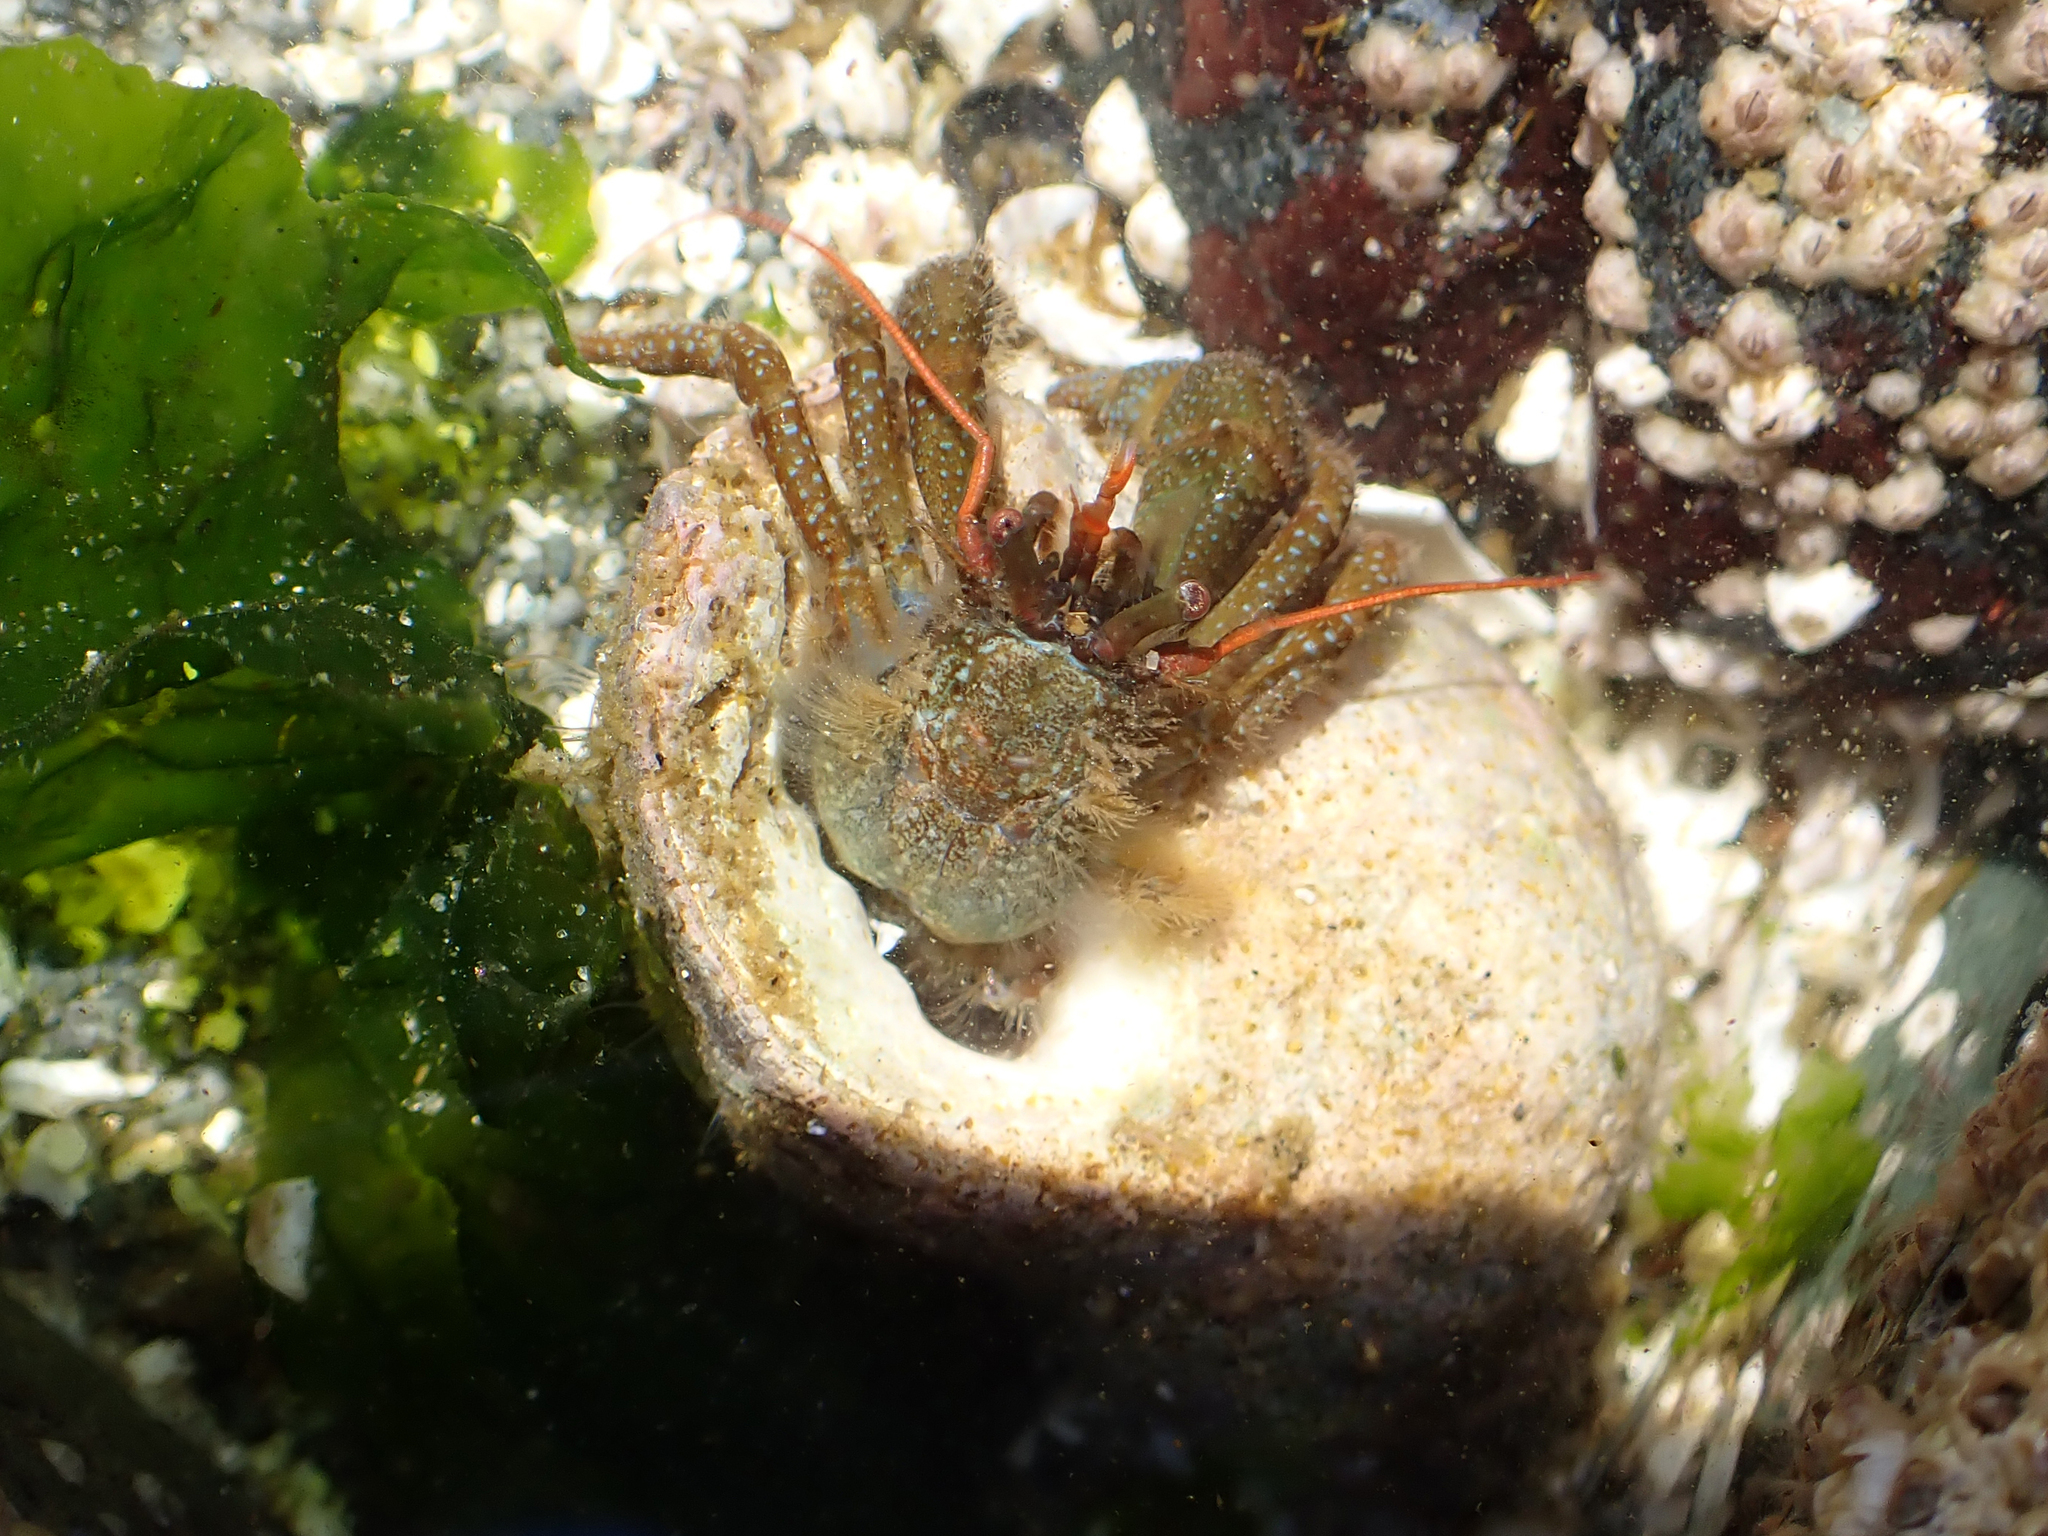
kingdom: Animalia
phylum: Arthropoda
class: Malacostraca
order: Decapoda
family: Paguridae
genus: Pagurus
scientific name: Pagurus granosimanus
